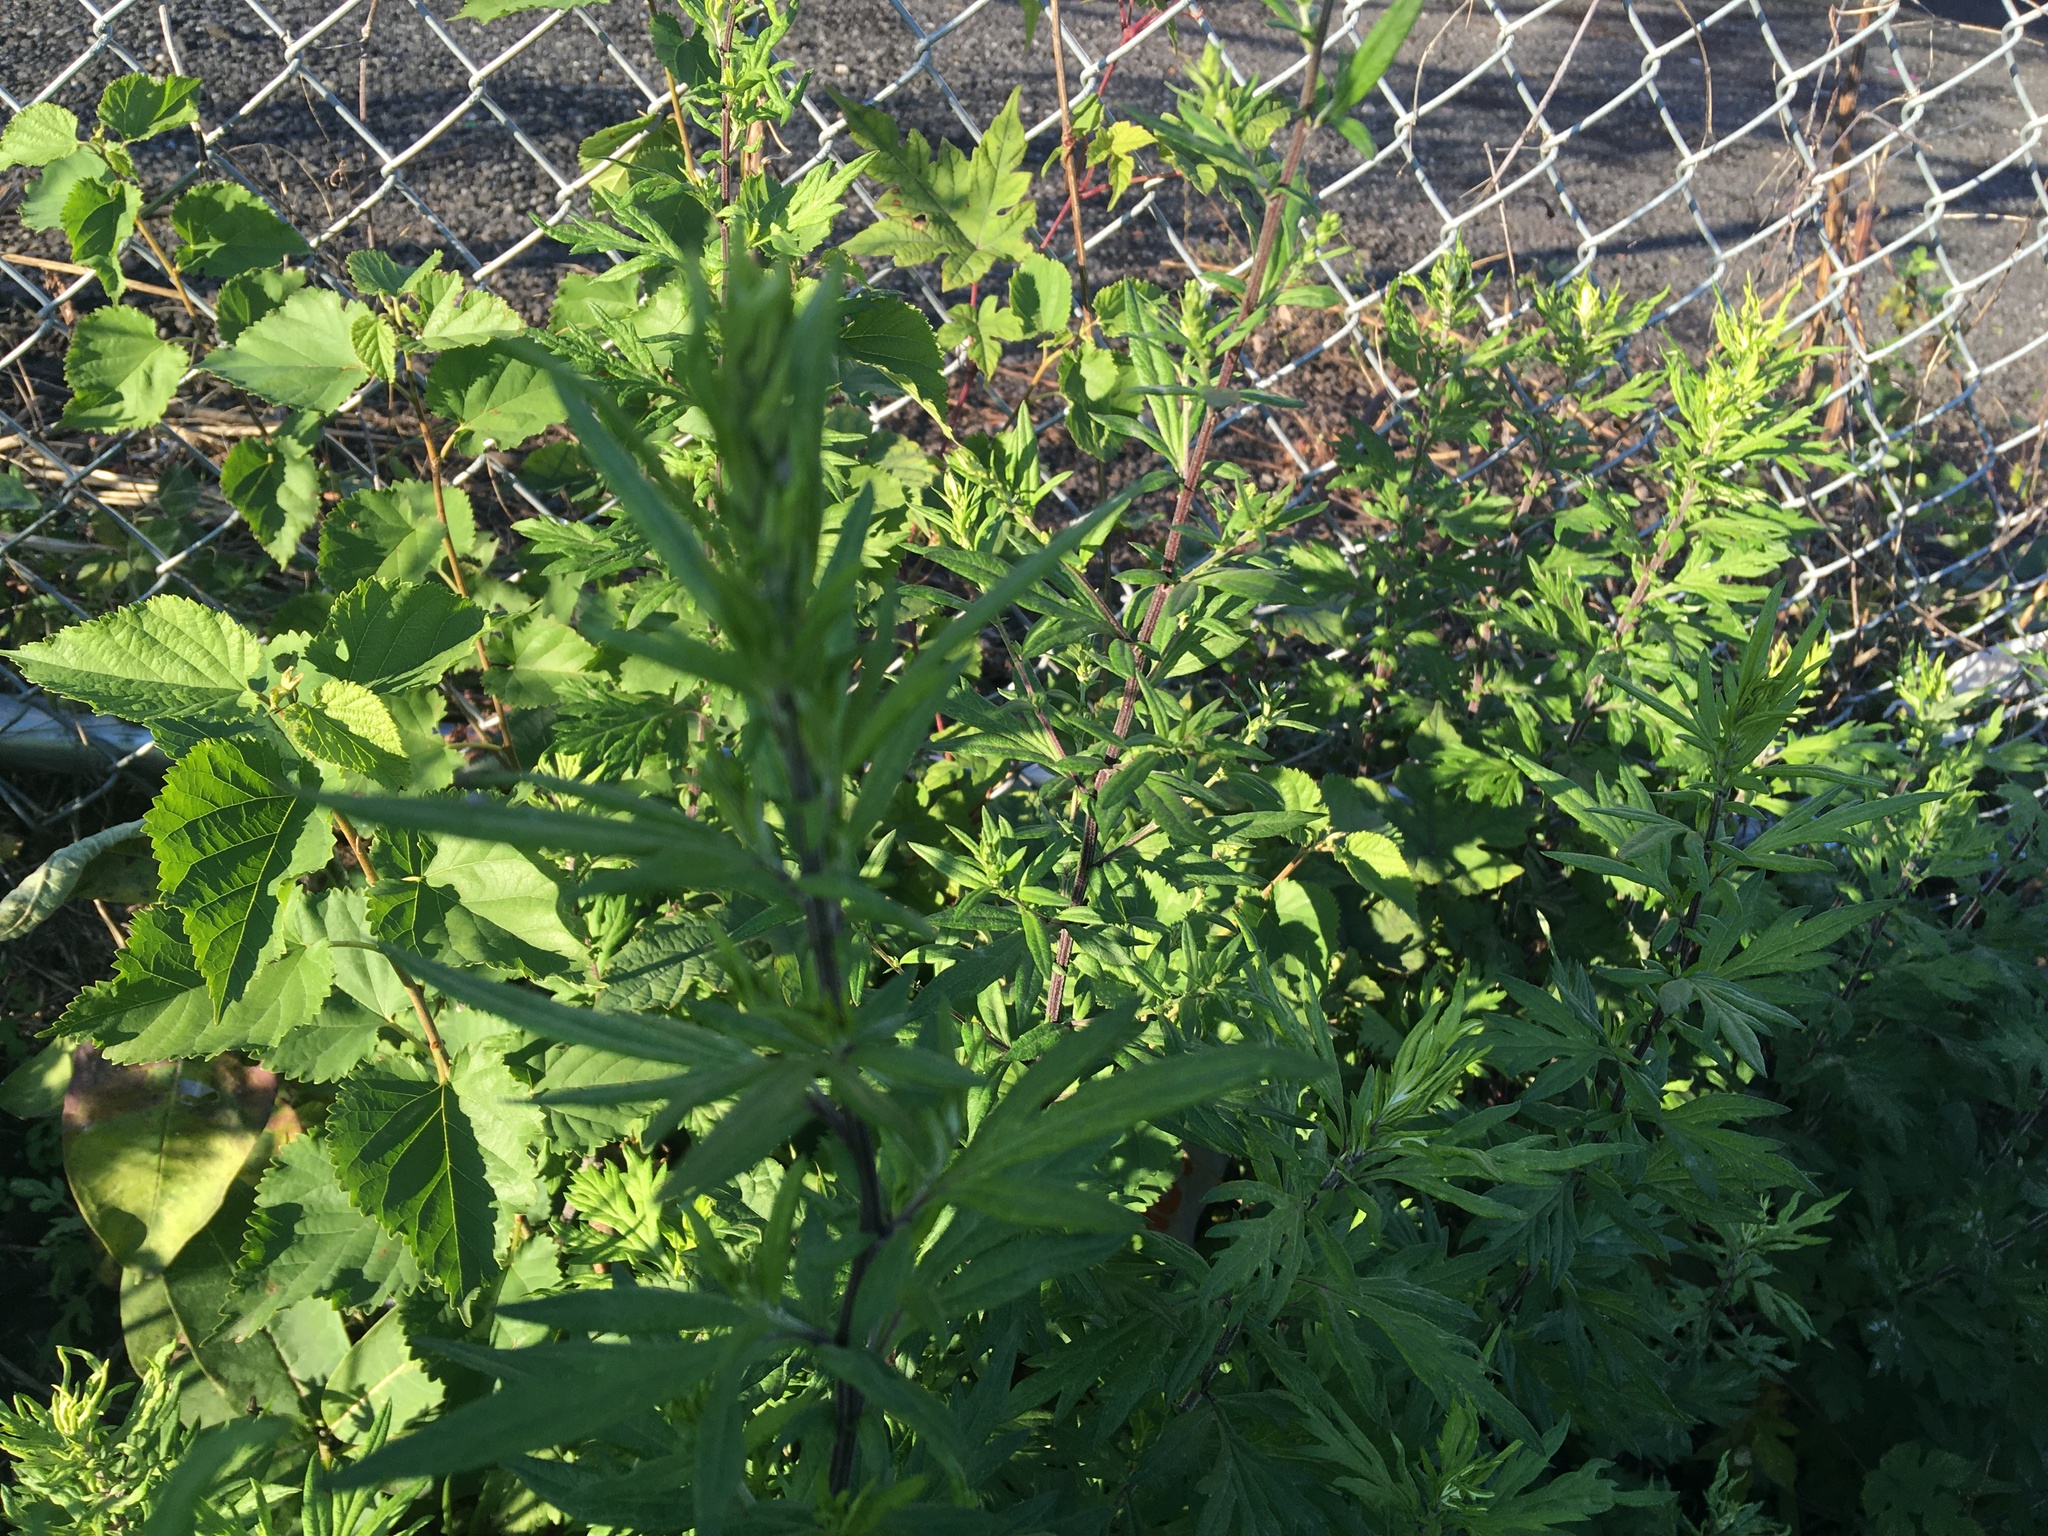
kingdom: Plantae
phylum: Tracheophyta
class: Magnoliopsida
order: Asterales
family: Asteraceae
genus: Artemisia
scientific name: Artemisia vulgaris
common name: Mugwort
